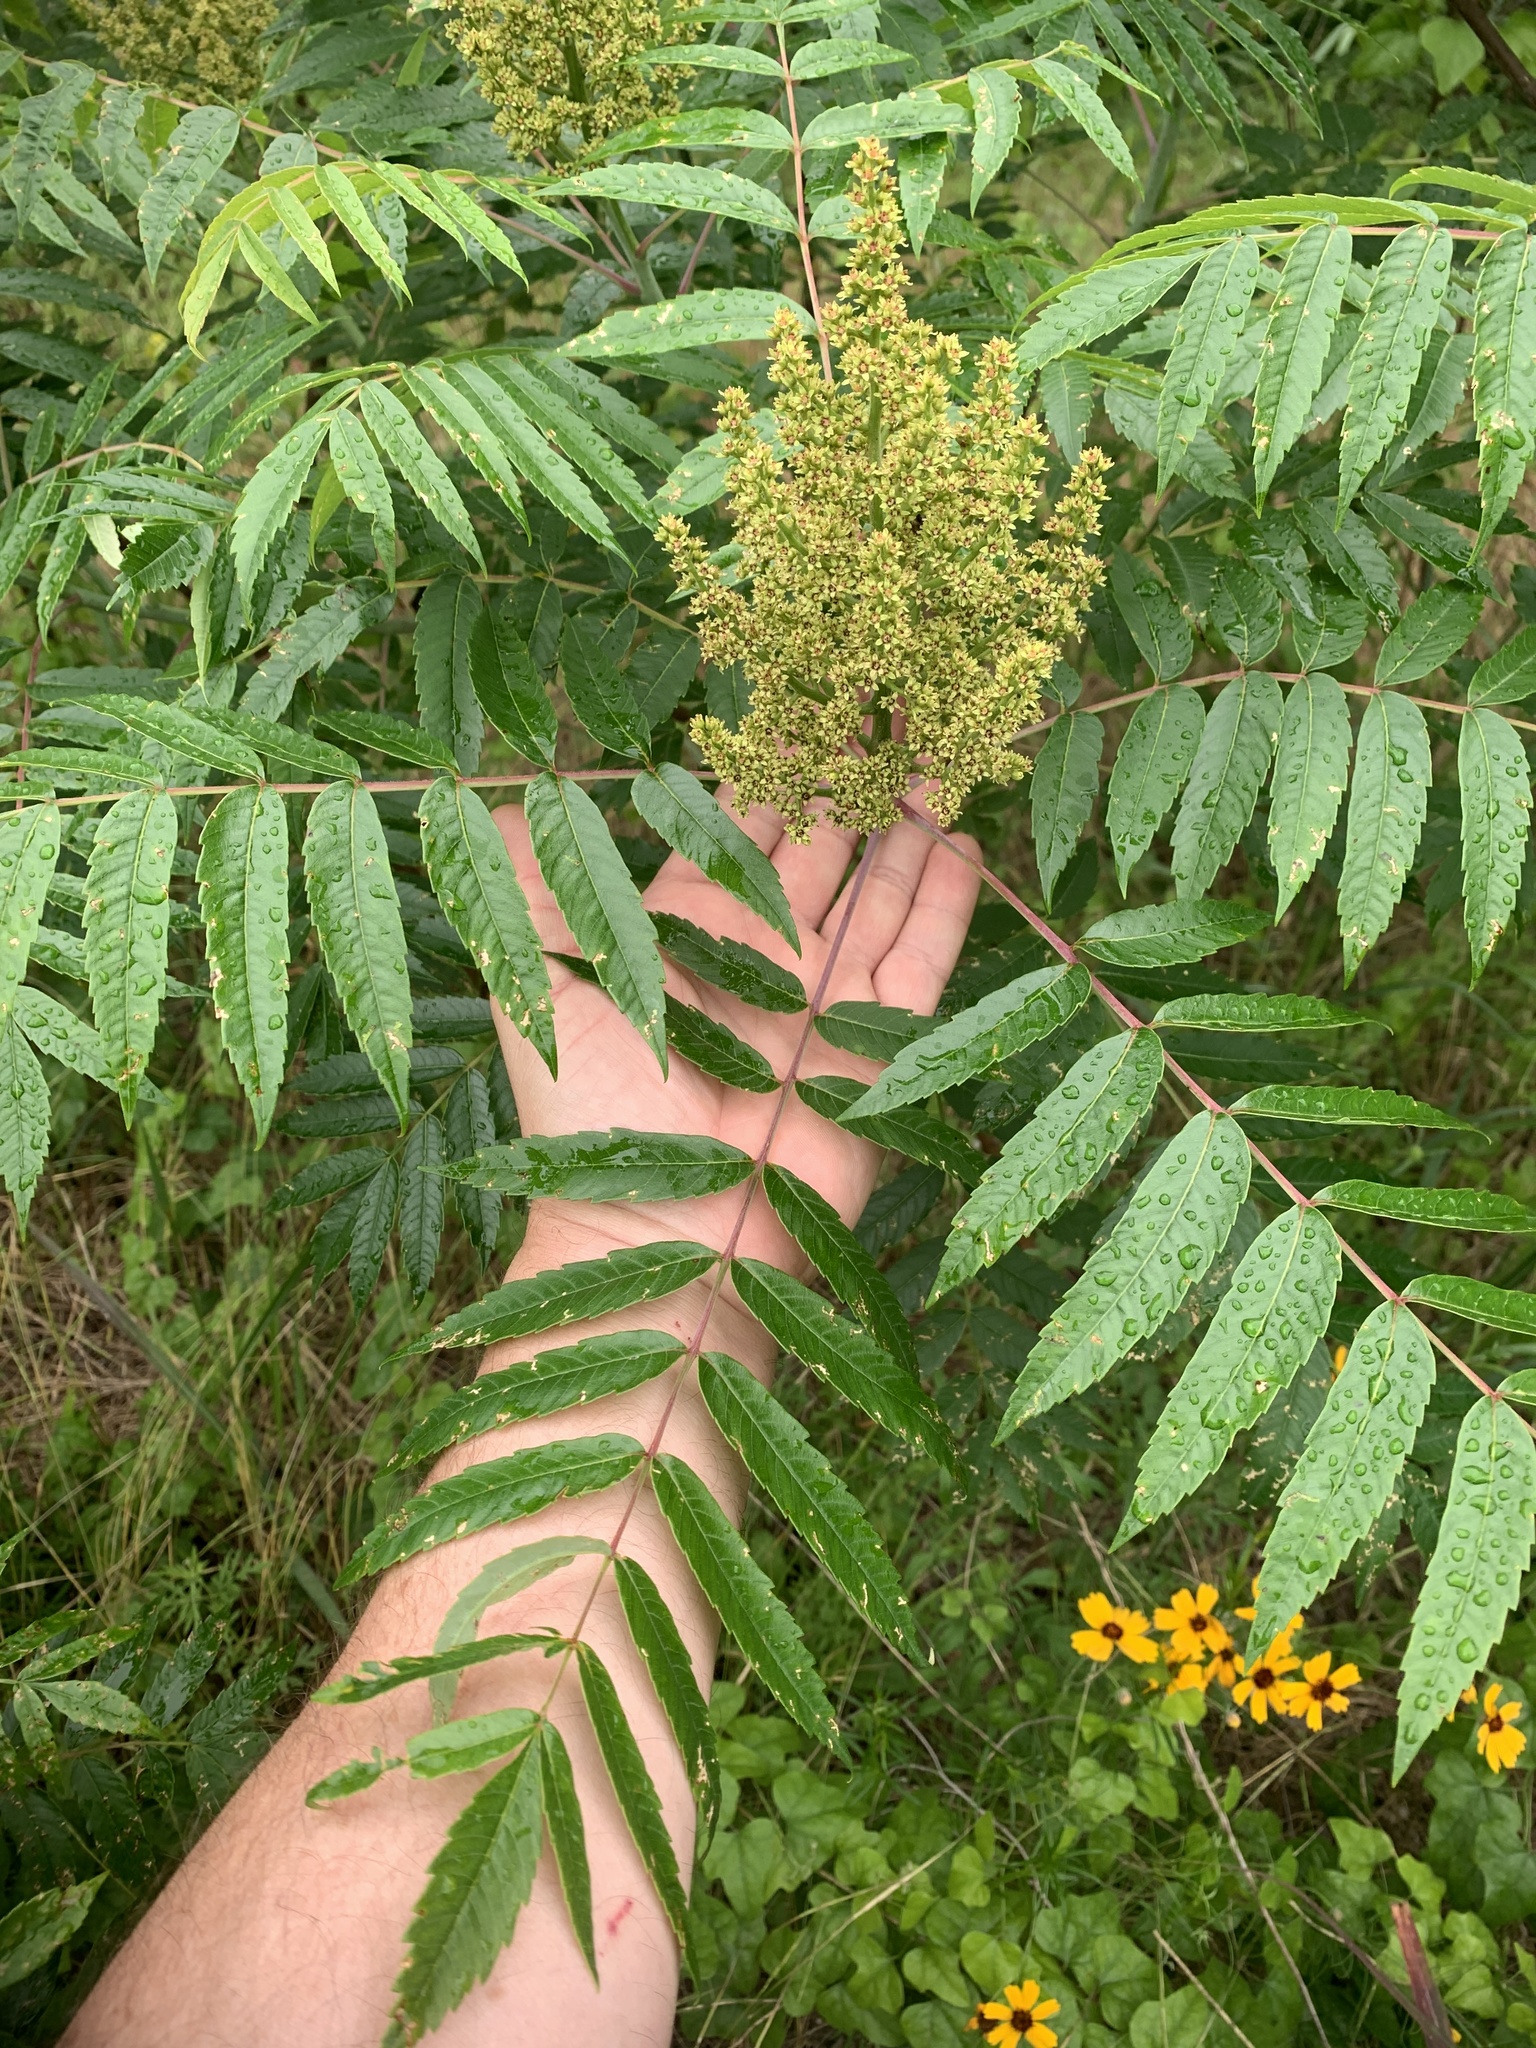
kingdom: Plantae
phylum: Tracheophyta
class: Magnoliopsida
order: Sapindales
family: Anacardiaceae
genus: Rhus
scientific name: Rhus glabra
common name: Scarlet sumac
